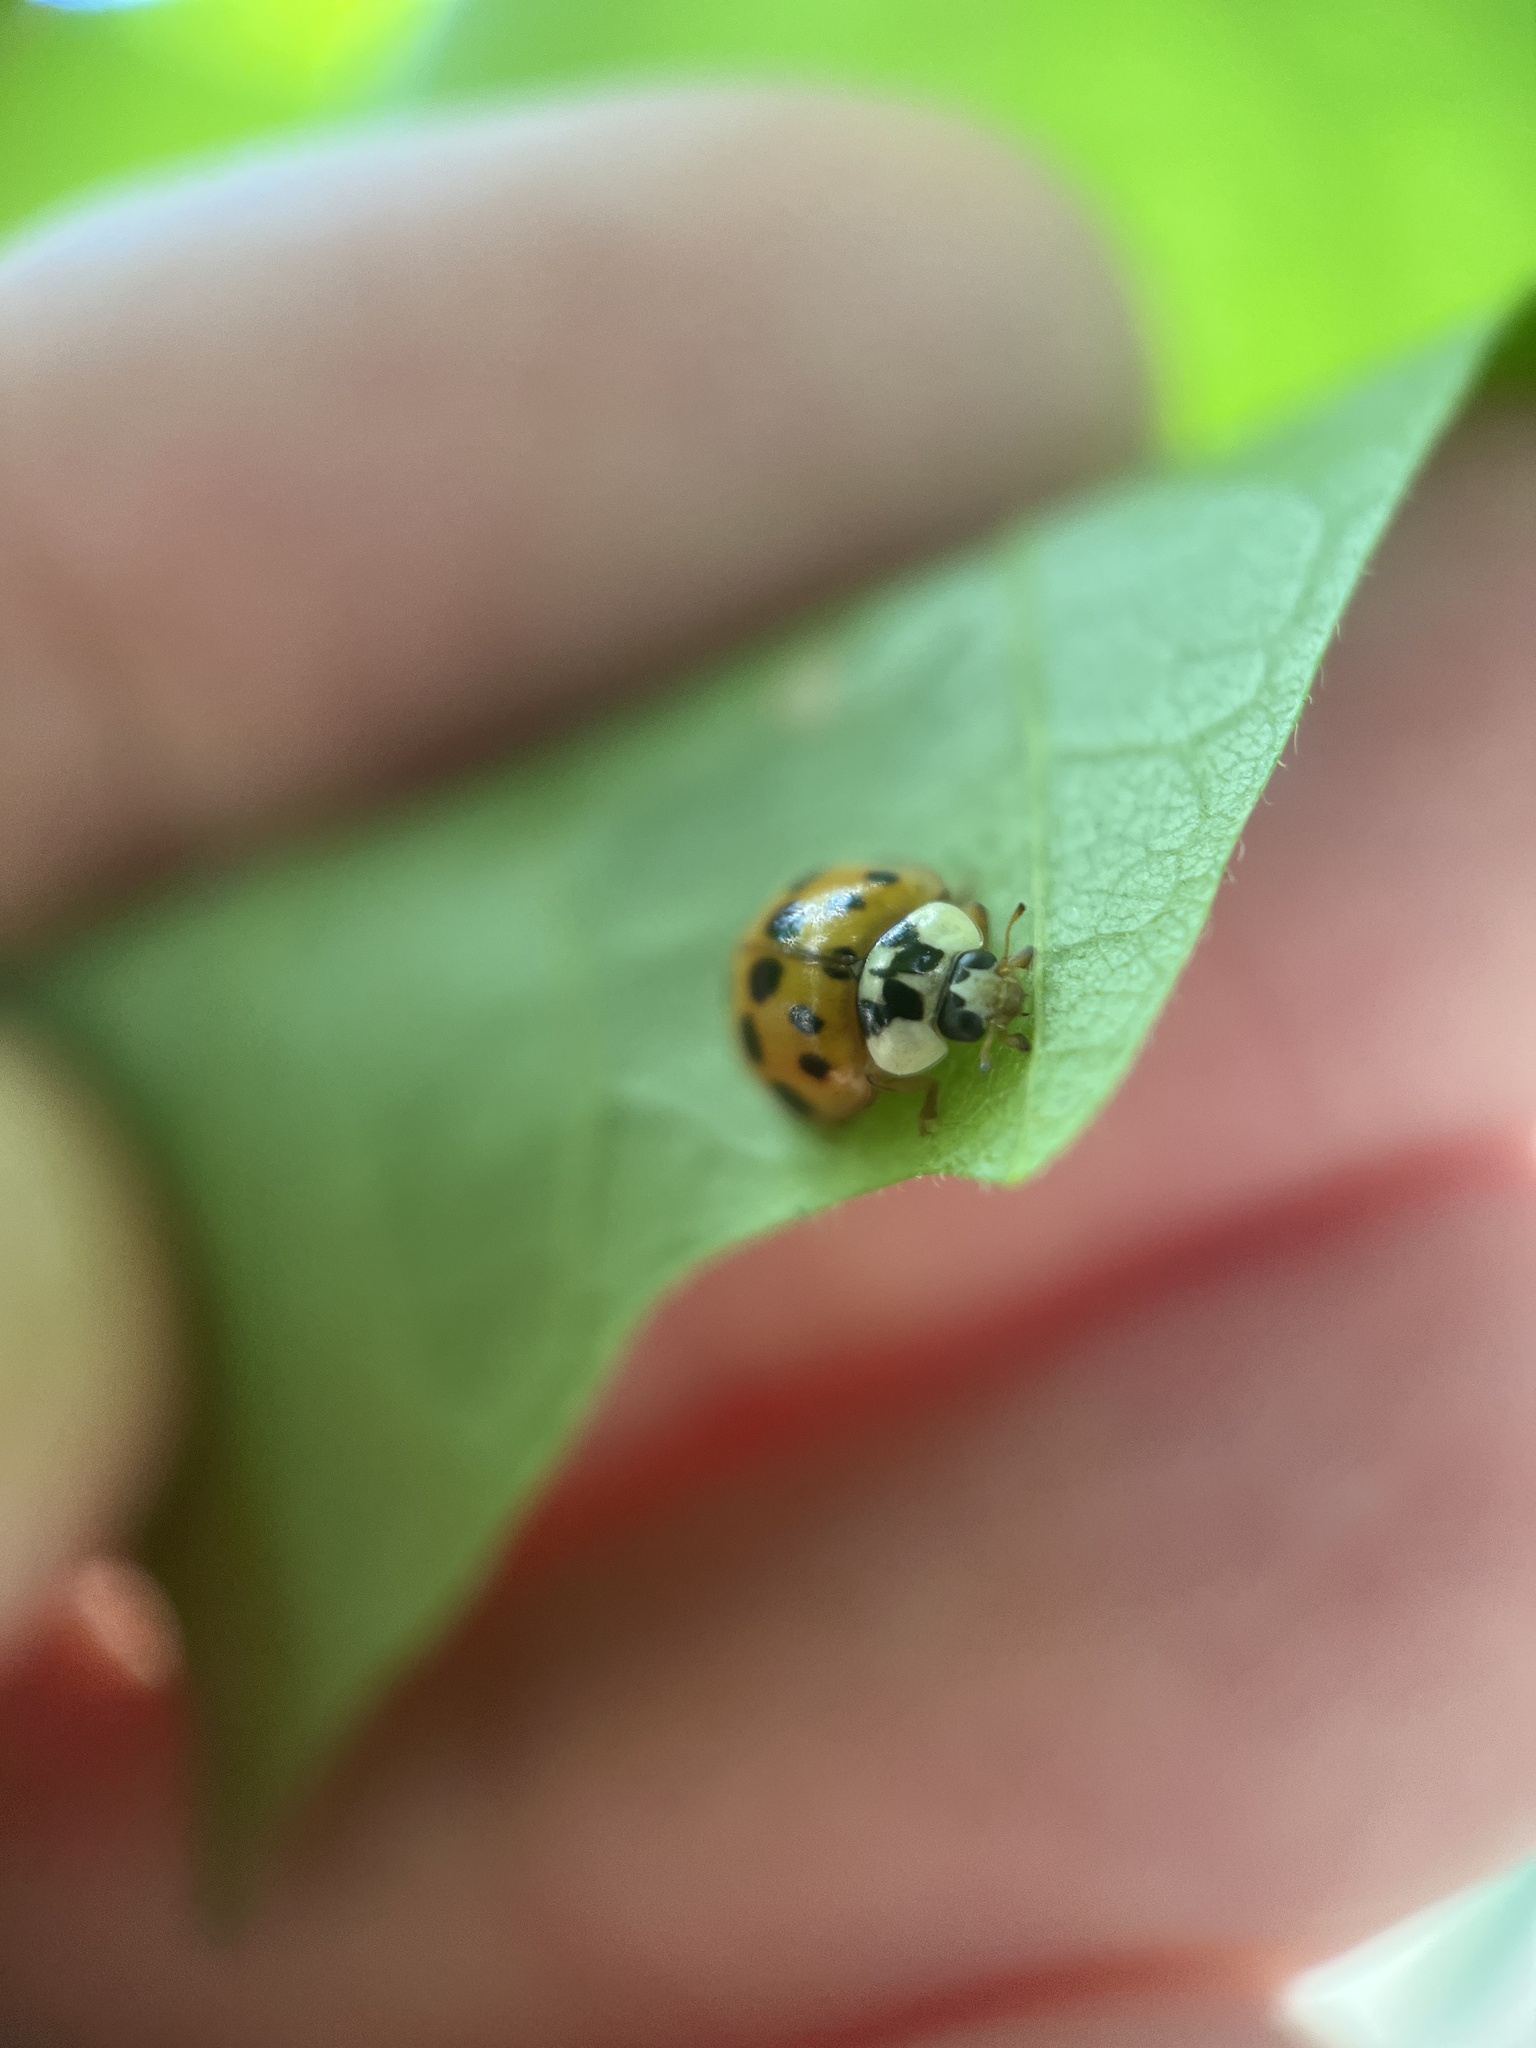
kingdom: Animalia
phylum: Arthropoda
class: Insecta
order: Coleoptera
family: Coccinellidae
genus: Harmonia
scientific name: Harmonia axyridis
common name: Harlequin ladybird
